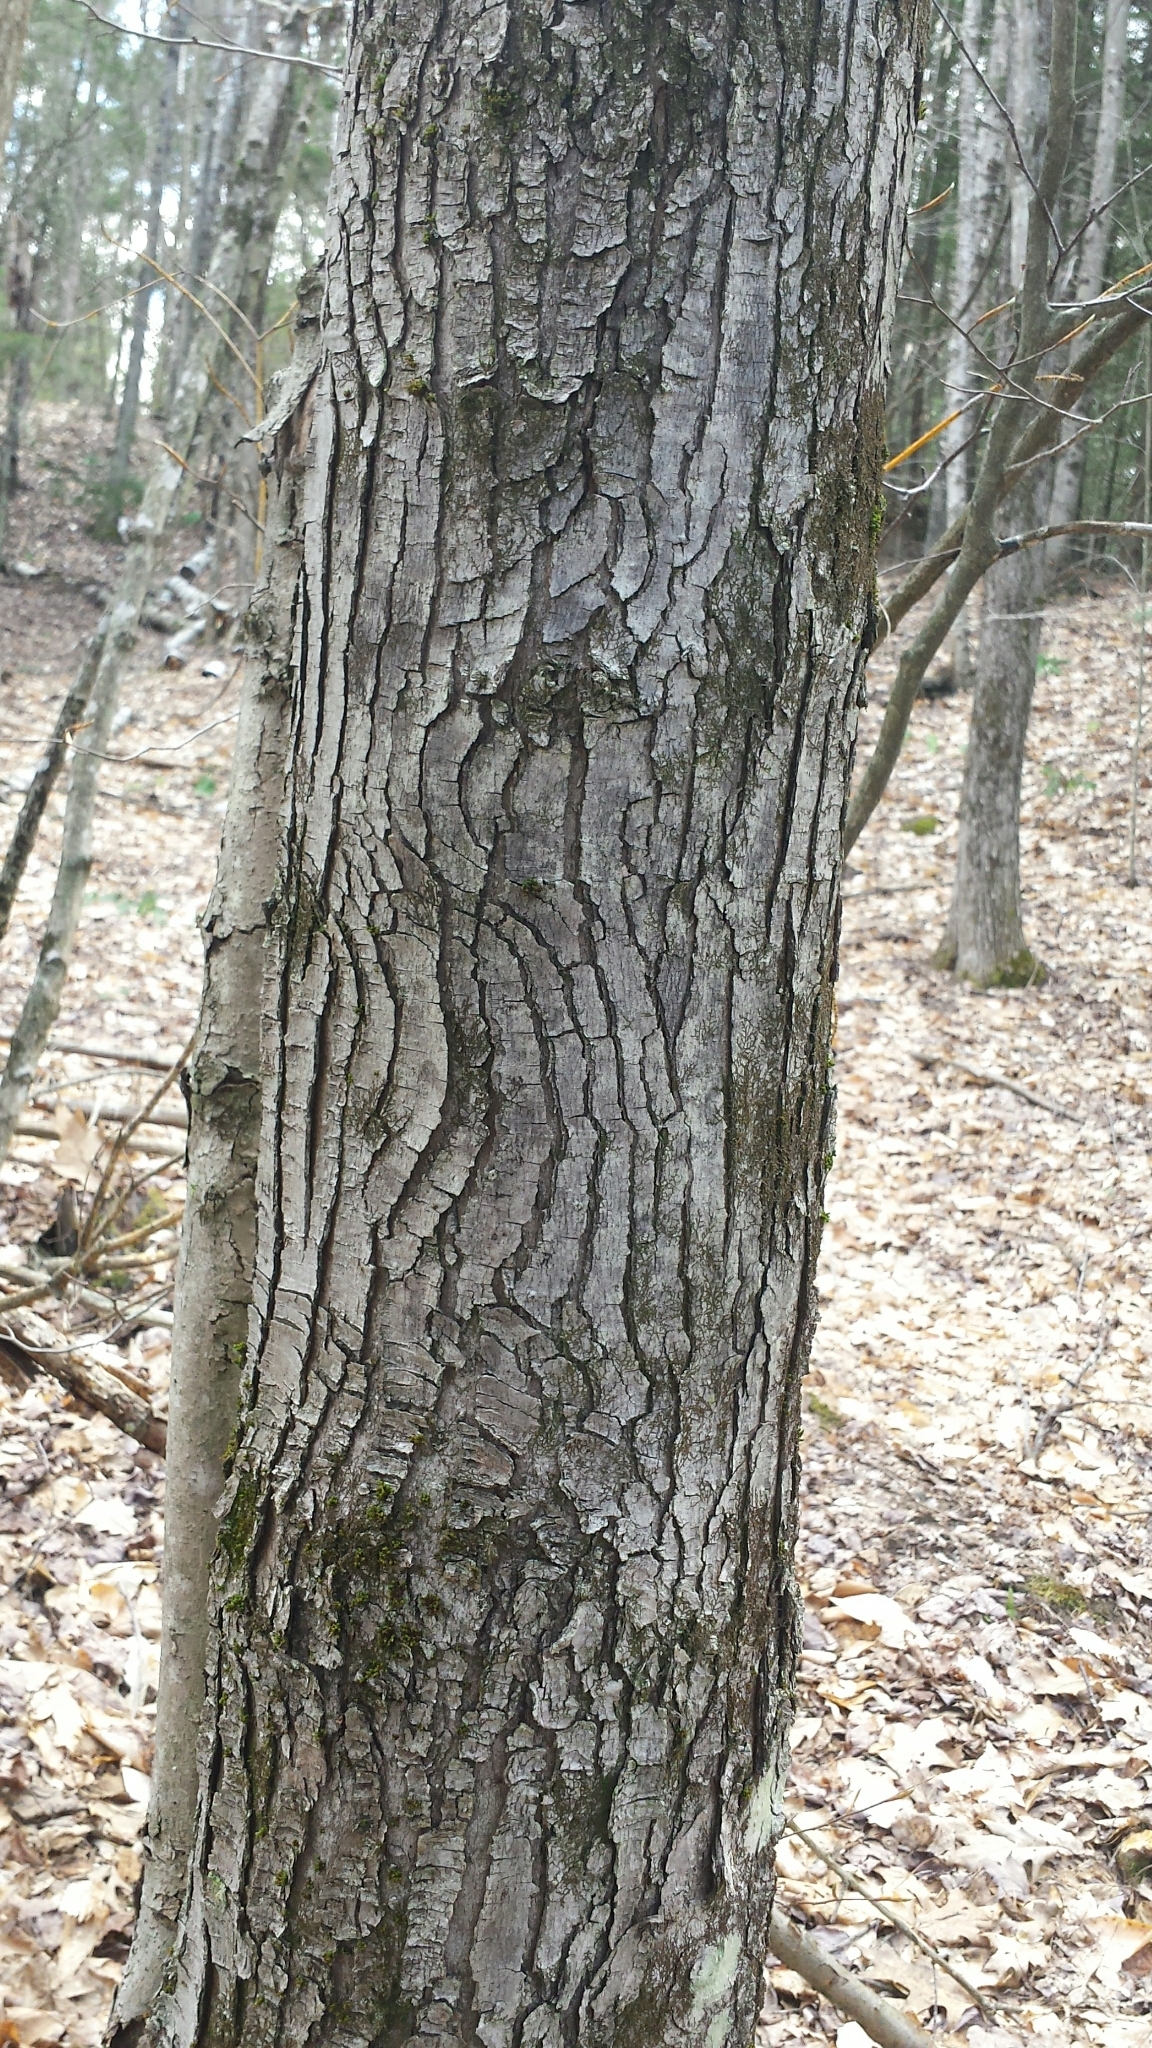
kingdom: Plantae
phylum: Tracheophyta
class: Magnoliopsida
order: Sapindales
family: Sapindaceae
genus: Acer
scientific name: Acer rubrum
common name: Red maple
